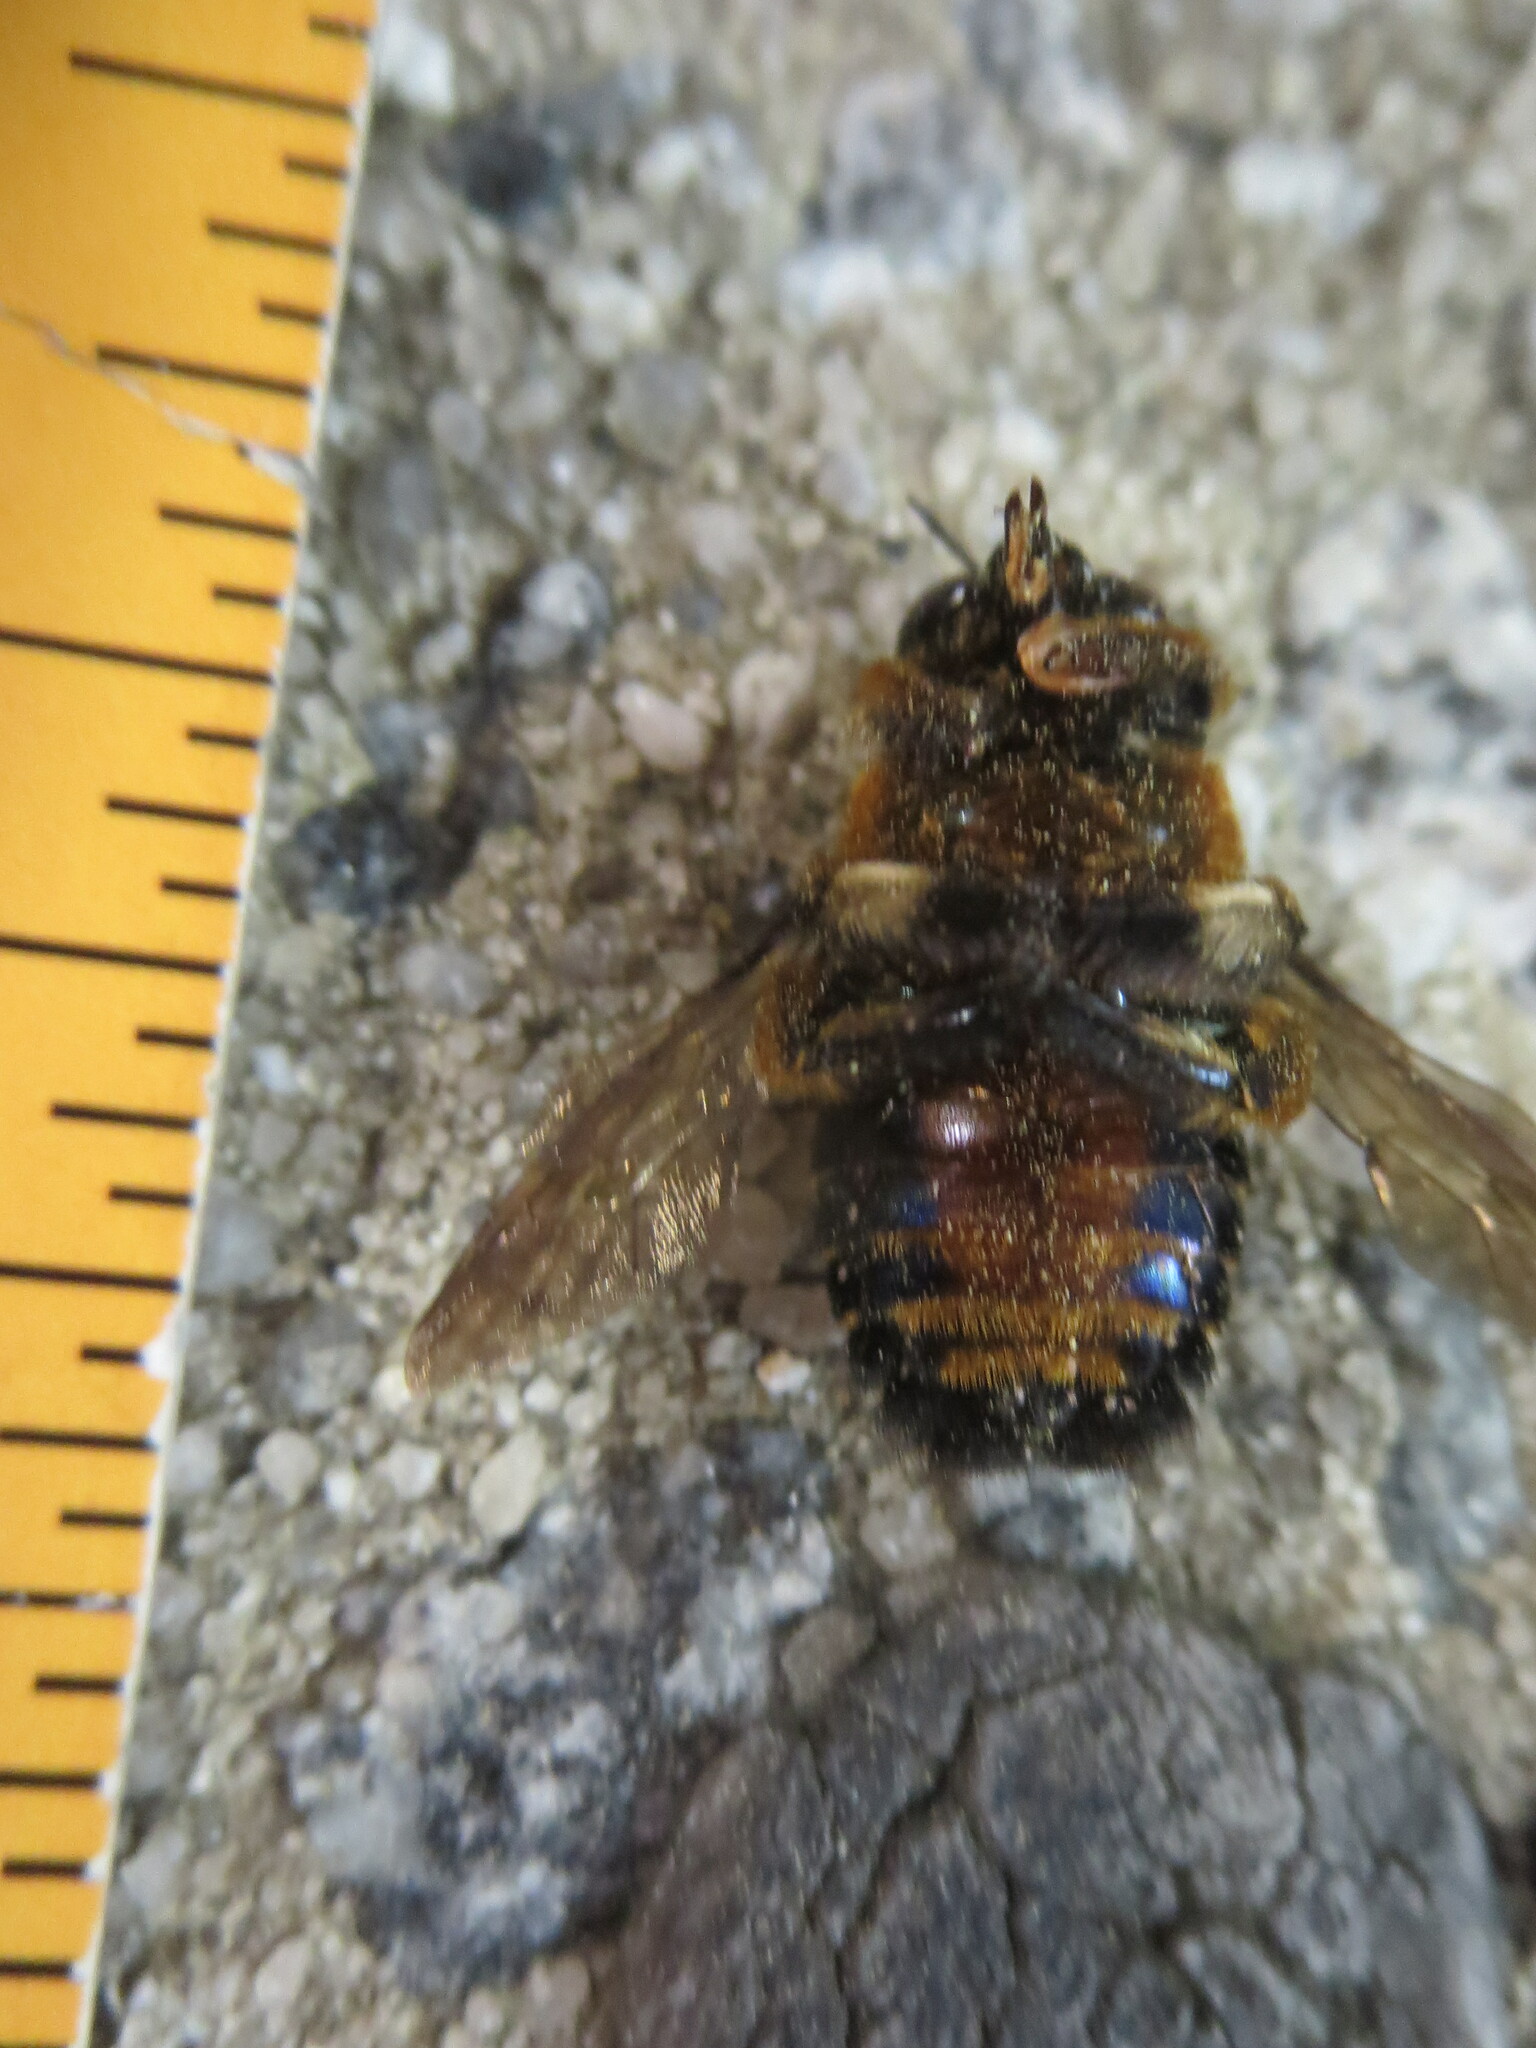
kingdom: Animalia
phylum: Arthropoda
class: Insecta
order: Hymenoptera
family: Apidae
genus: Xylocopa
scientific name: Xylocopa micans
